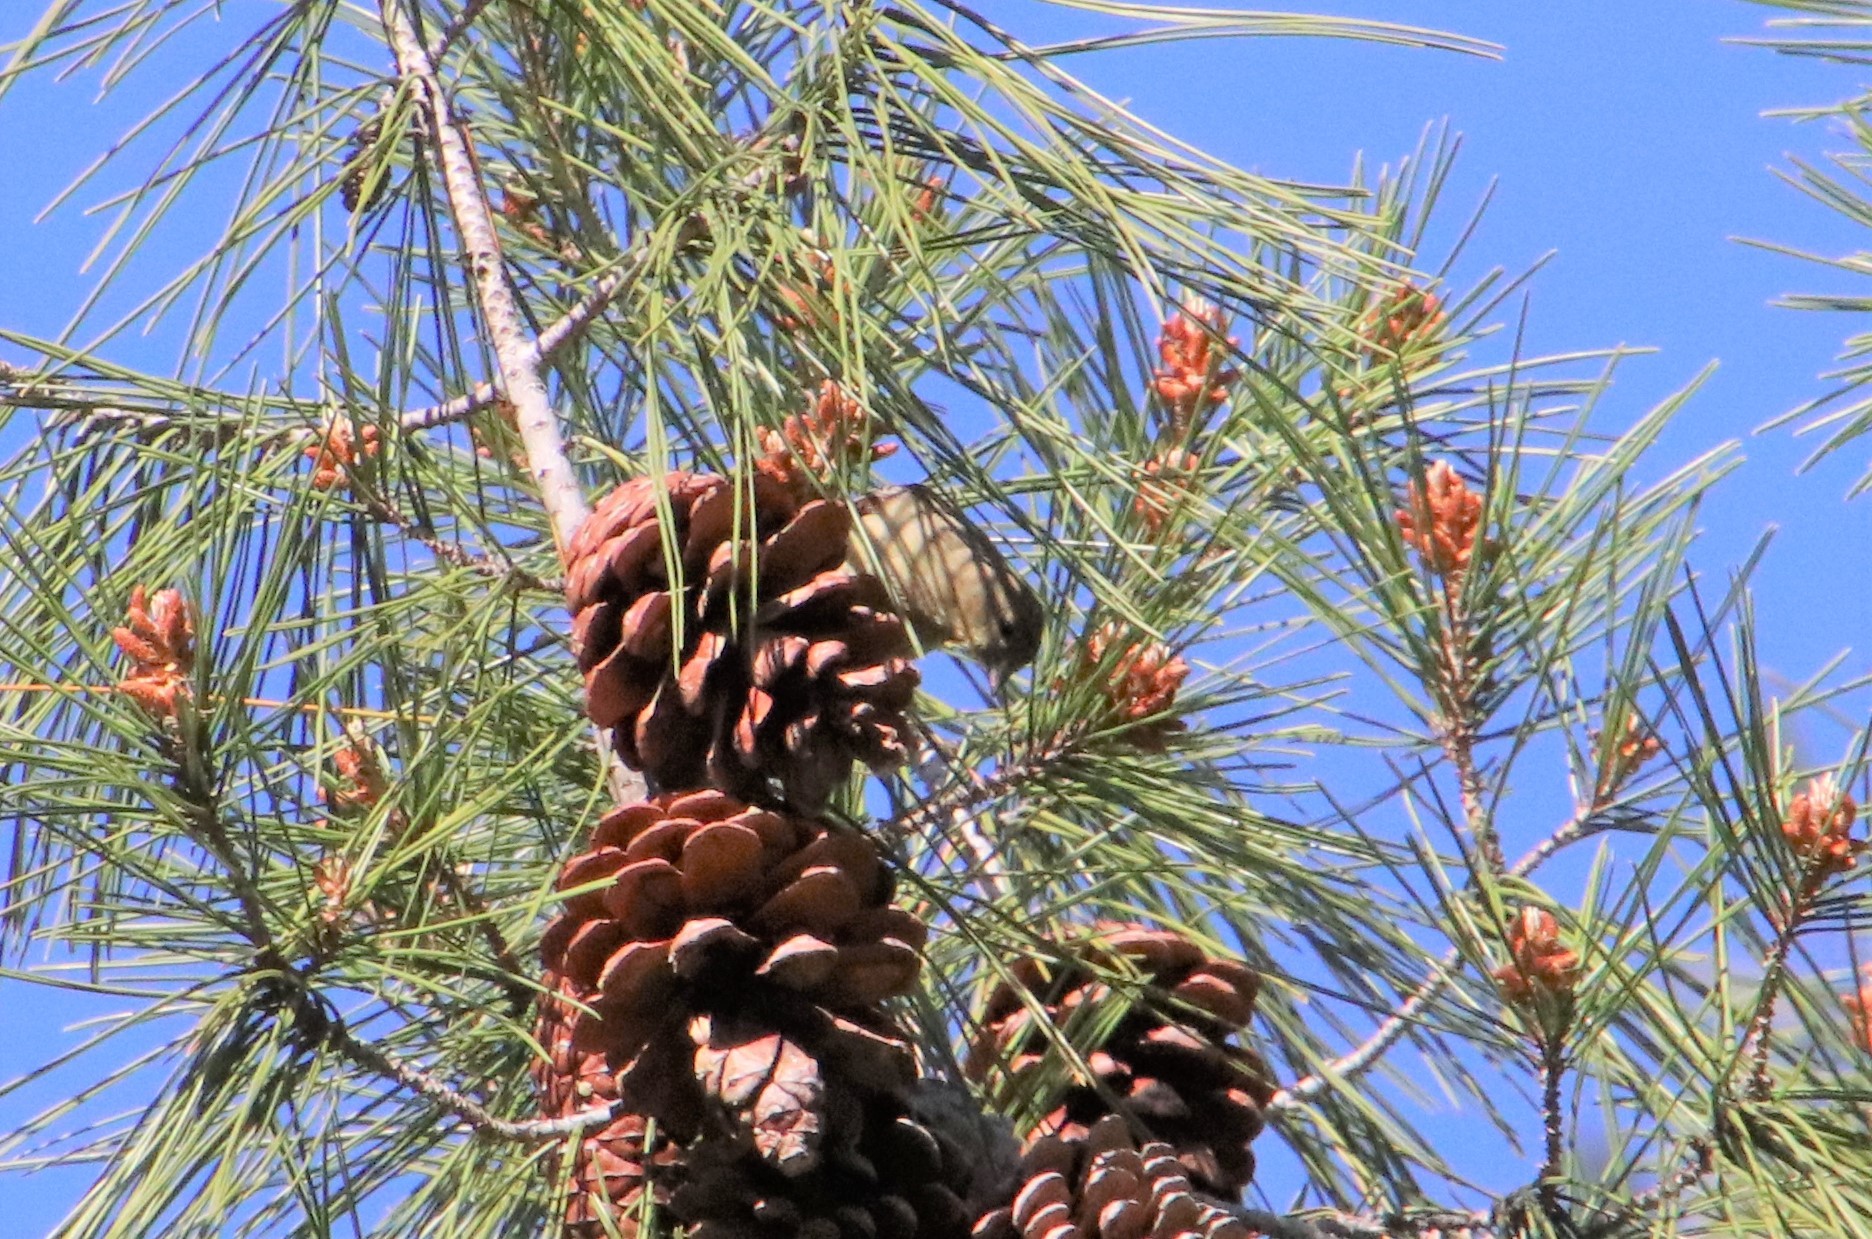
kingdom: Animalia
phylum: Chordata
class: Aves
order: Passeriformes
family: Fringillidae
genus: Spinus
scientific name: Spinus psaltria
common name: Lesser goldfinch
